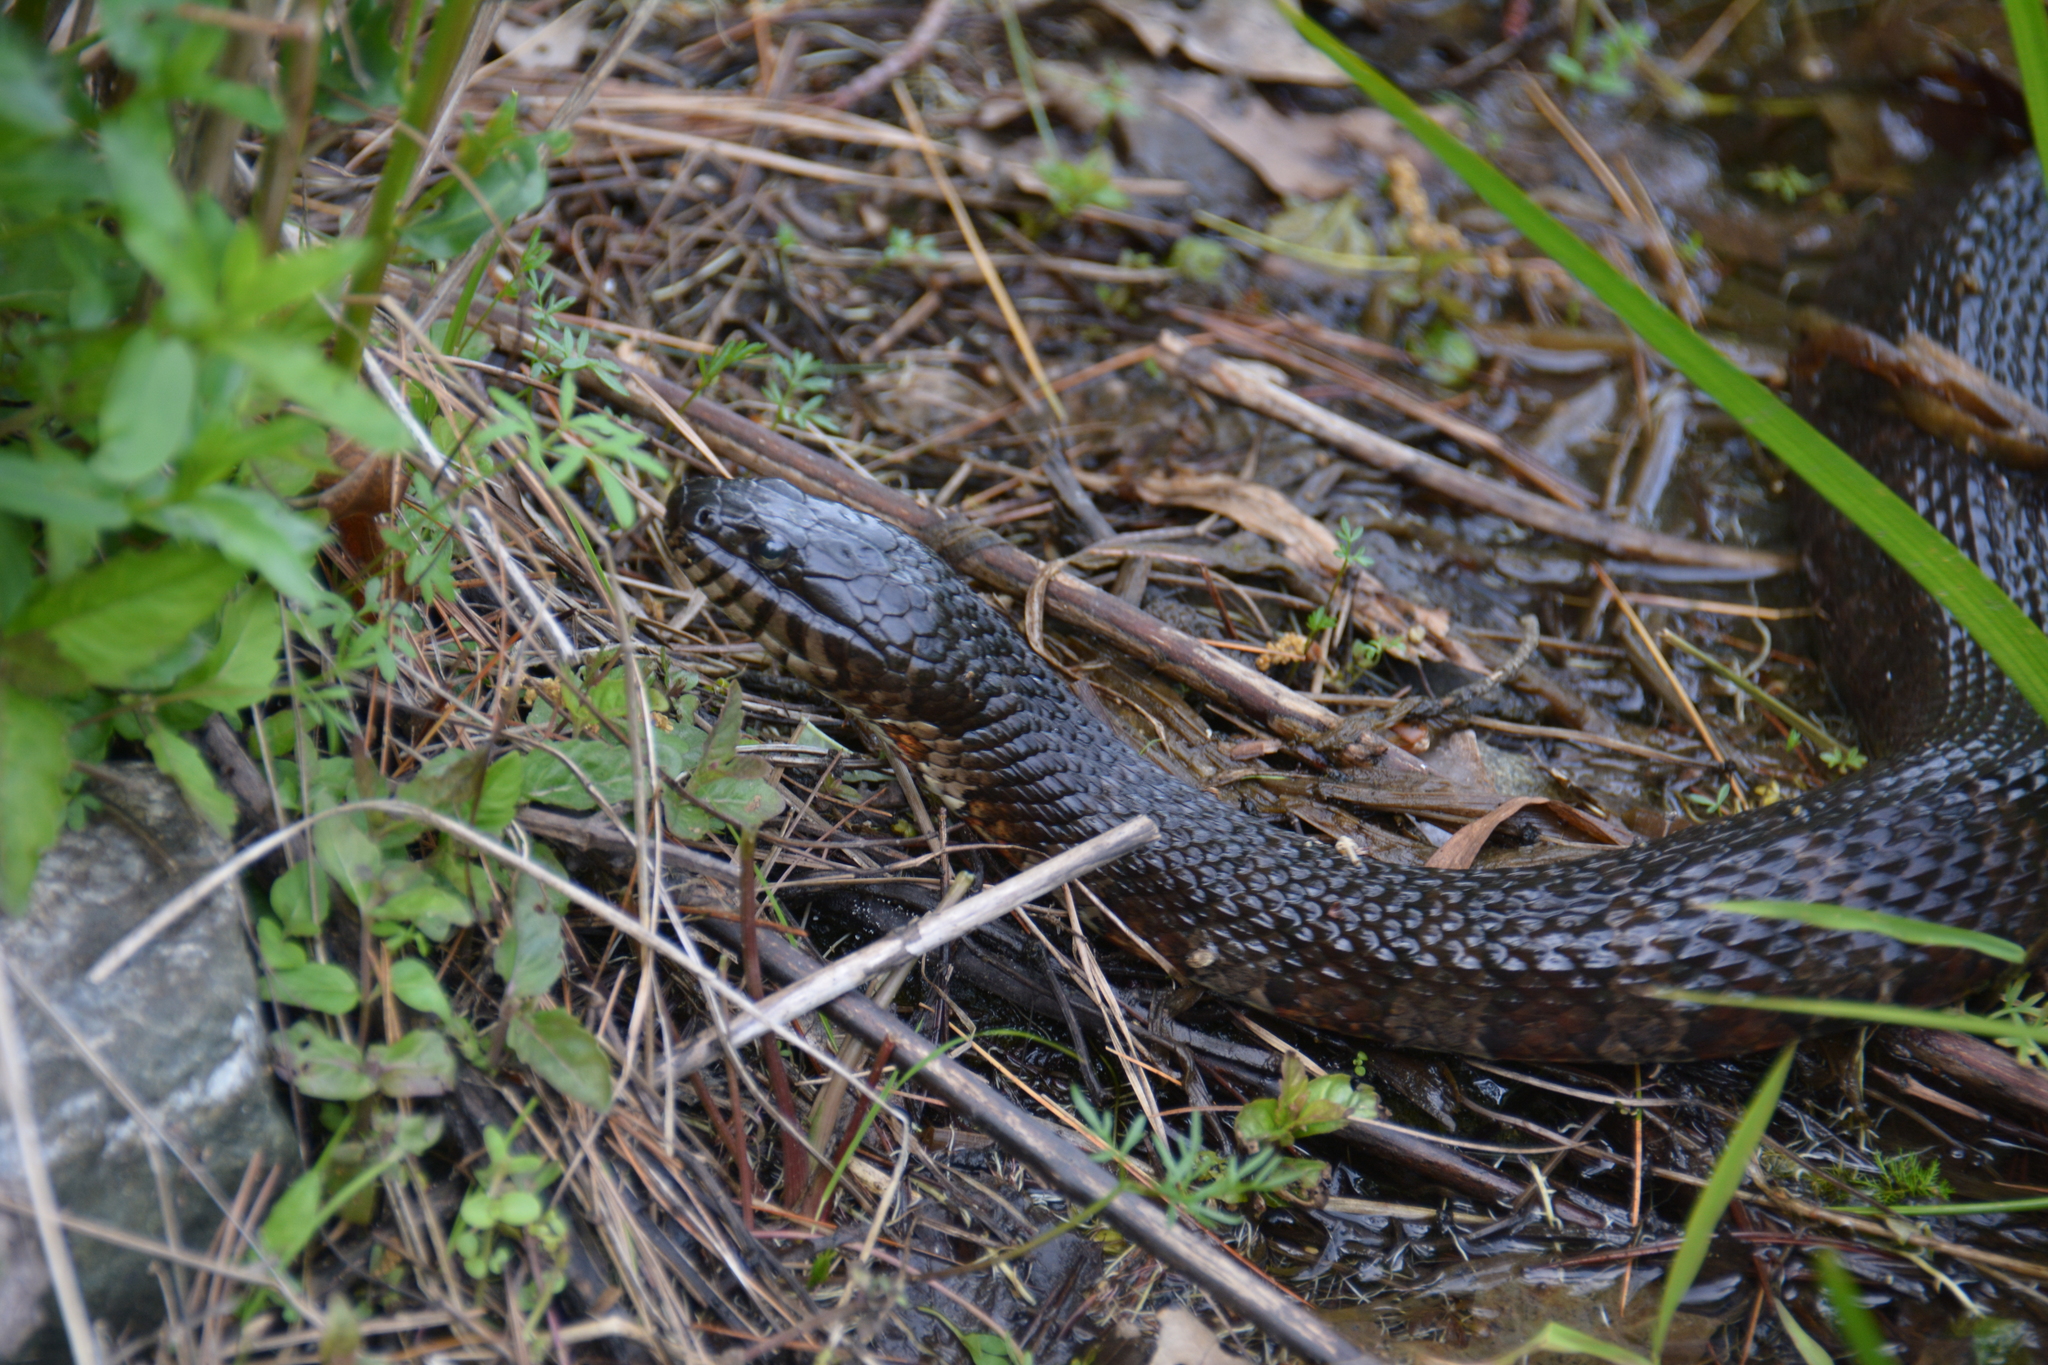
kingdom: Animalia
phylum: Chordata
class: Squamata
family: Colubridae
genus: Nerodia
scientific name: Nerodia sipedon
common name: Northern water snake
